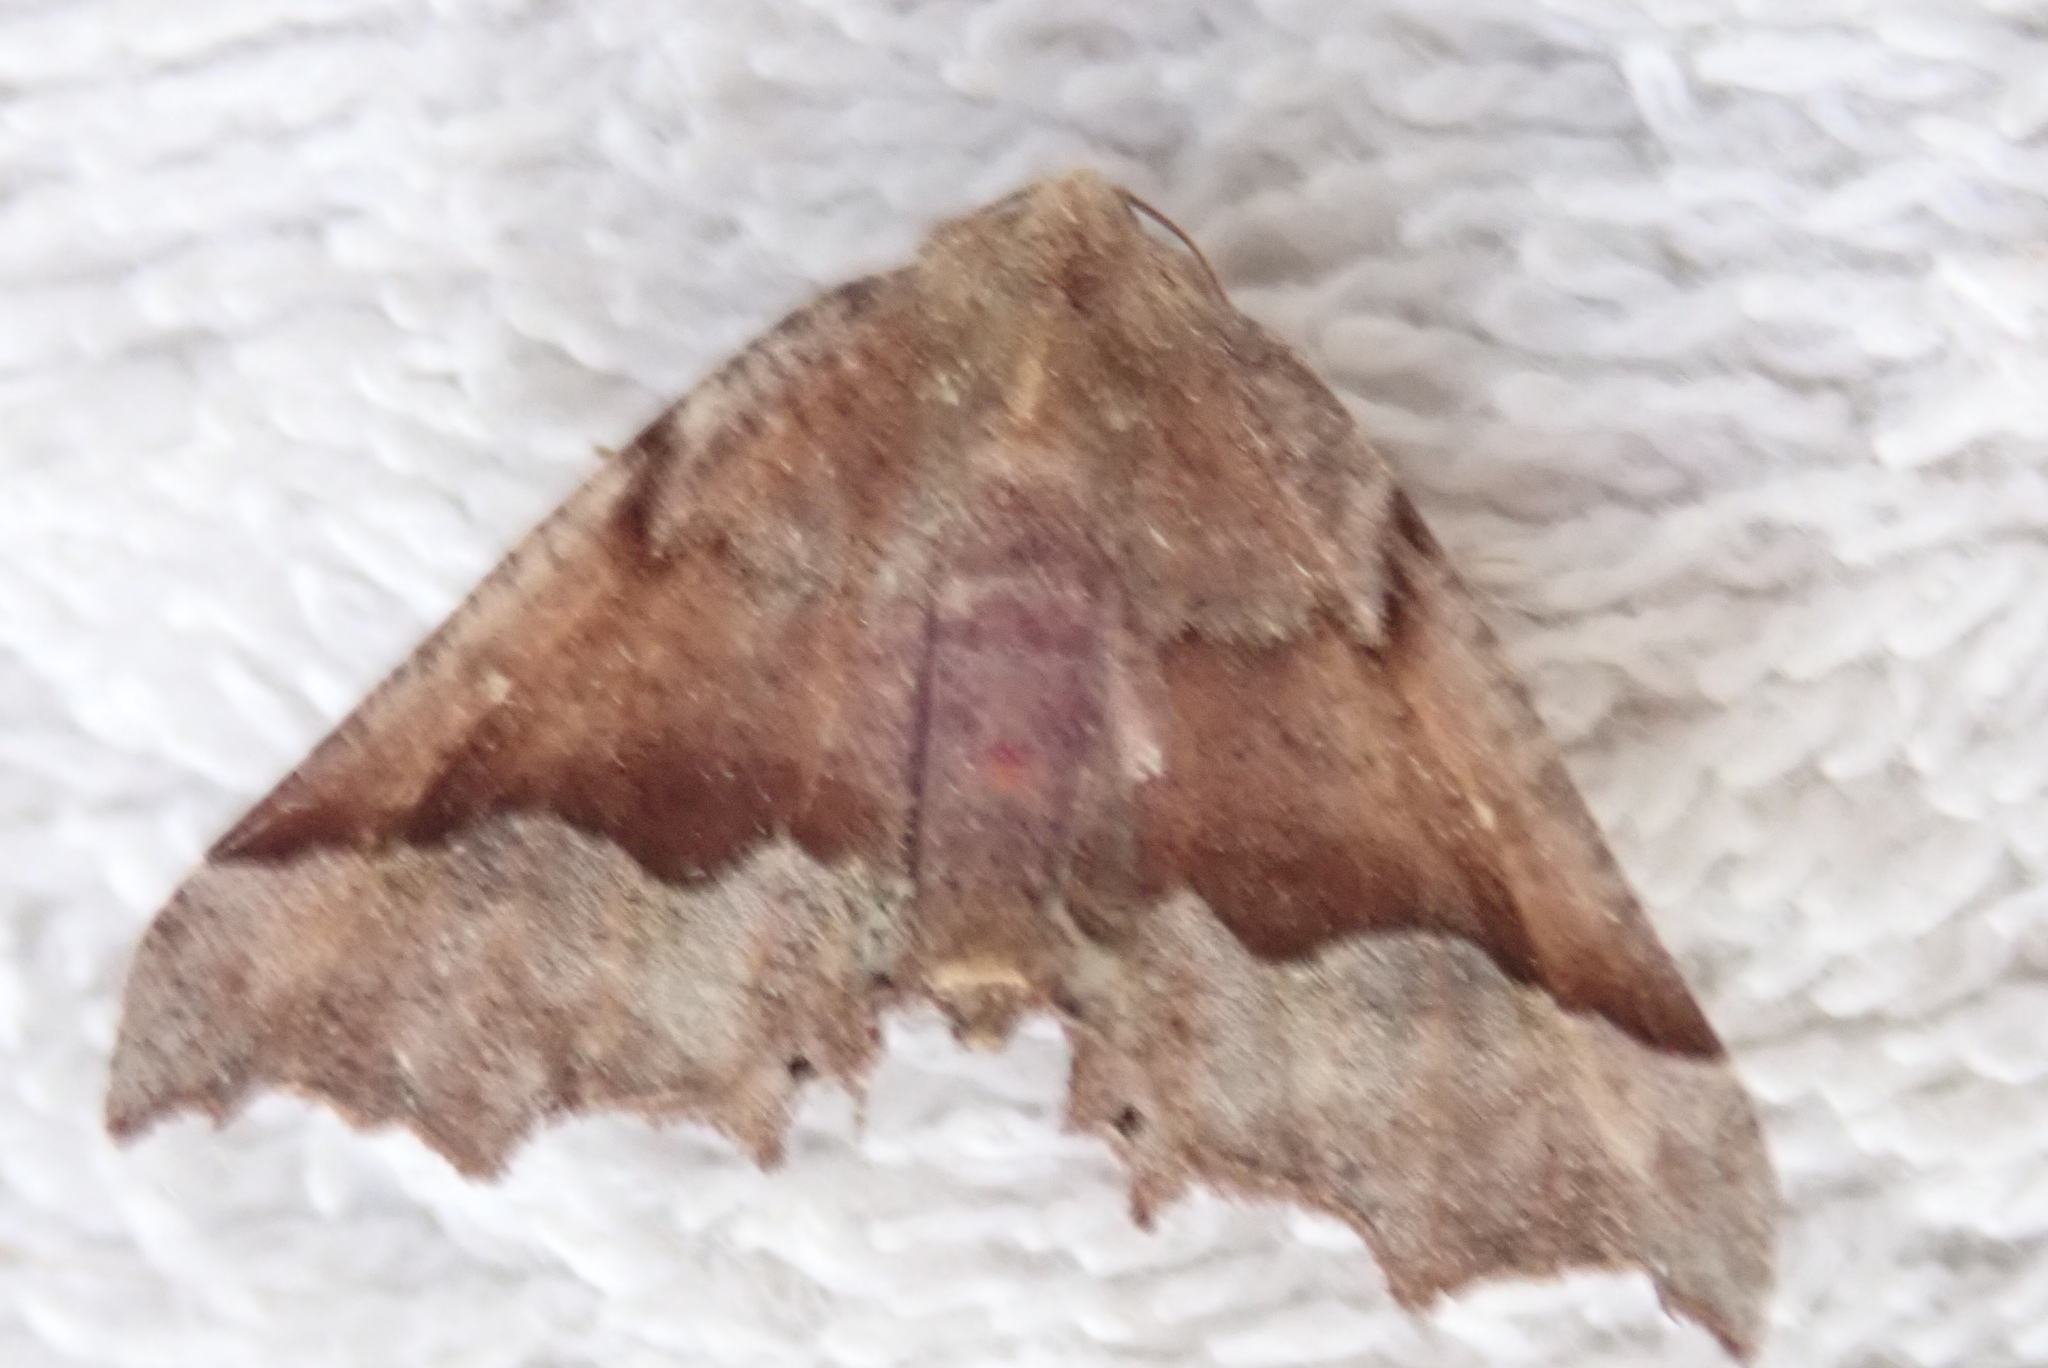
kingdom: Animalia
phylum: Arthropoda
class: Insecta
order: Lepidoptera
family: Geometridae
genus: Pero
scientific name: Pero morrisonaria
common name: Morrison's pero
